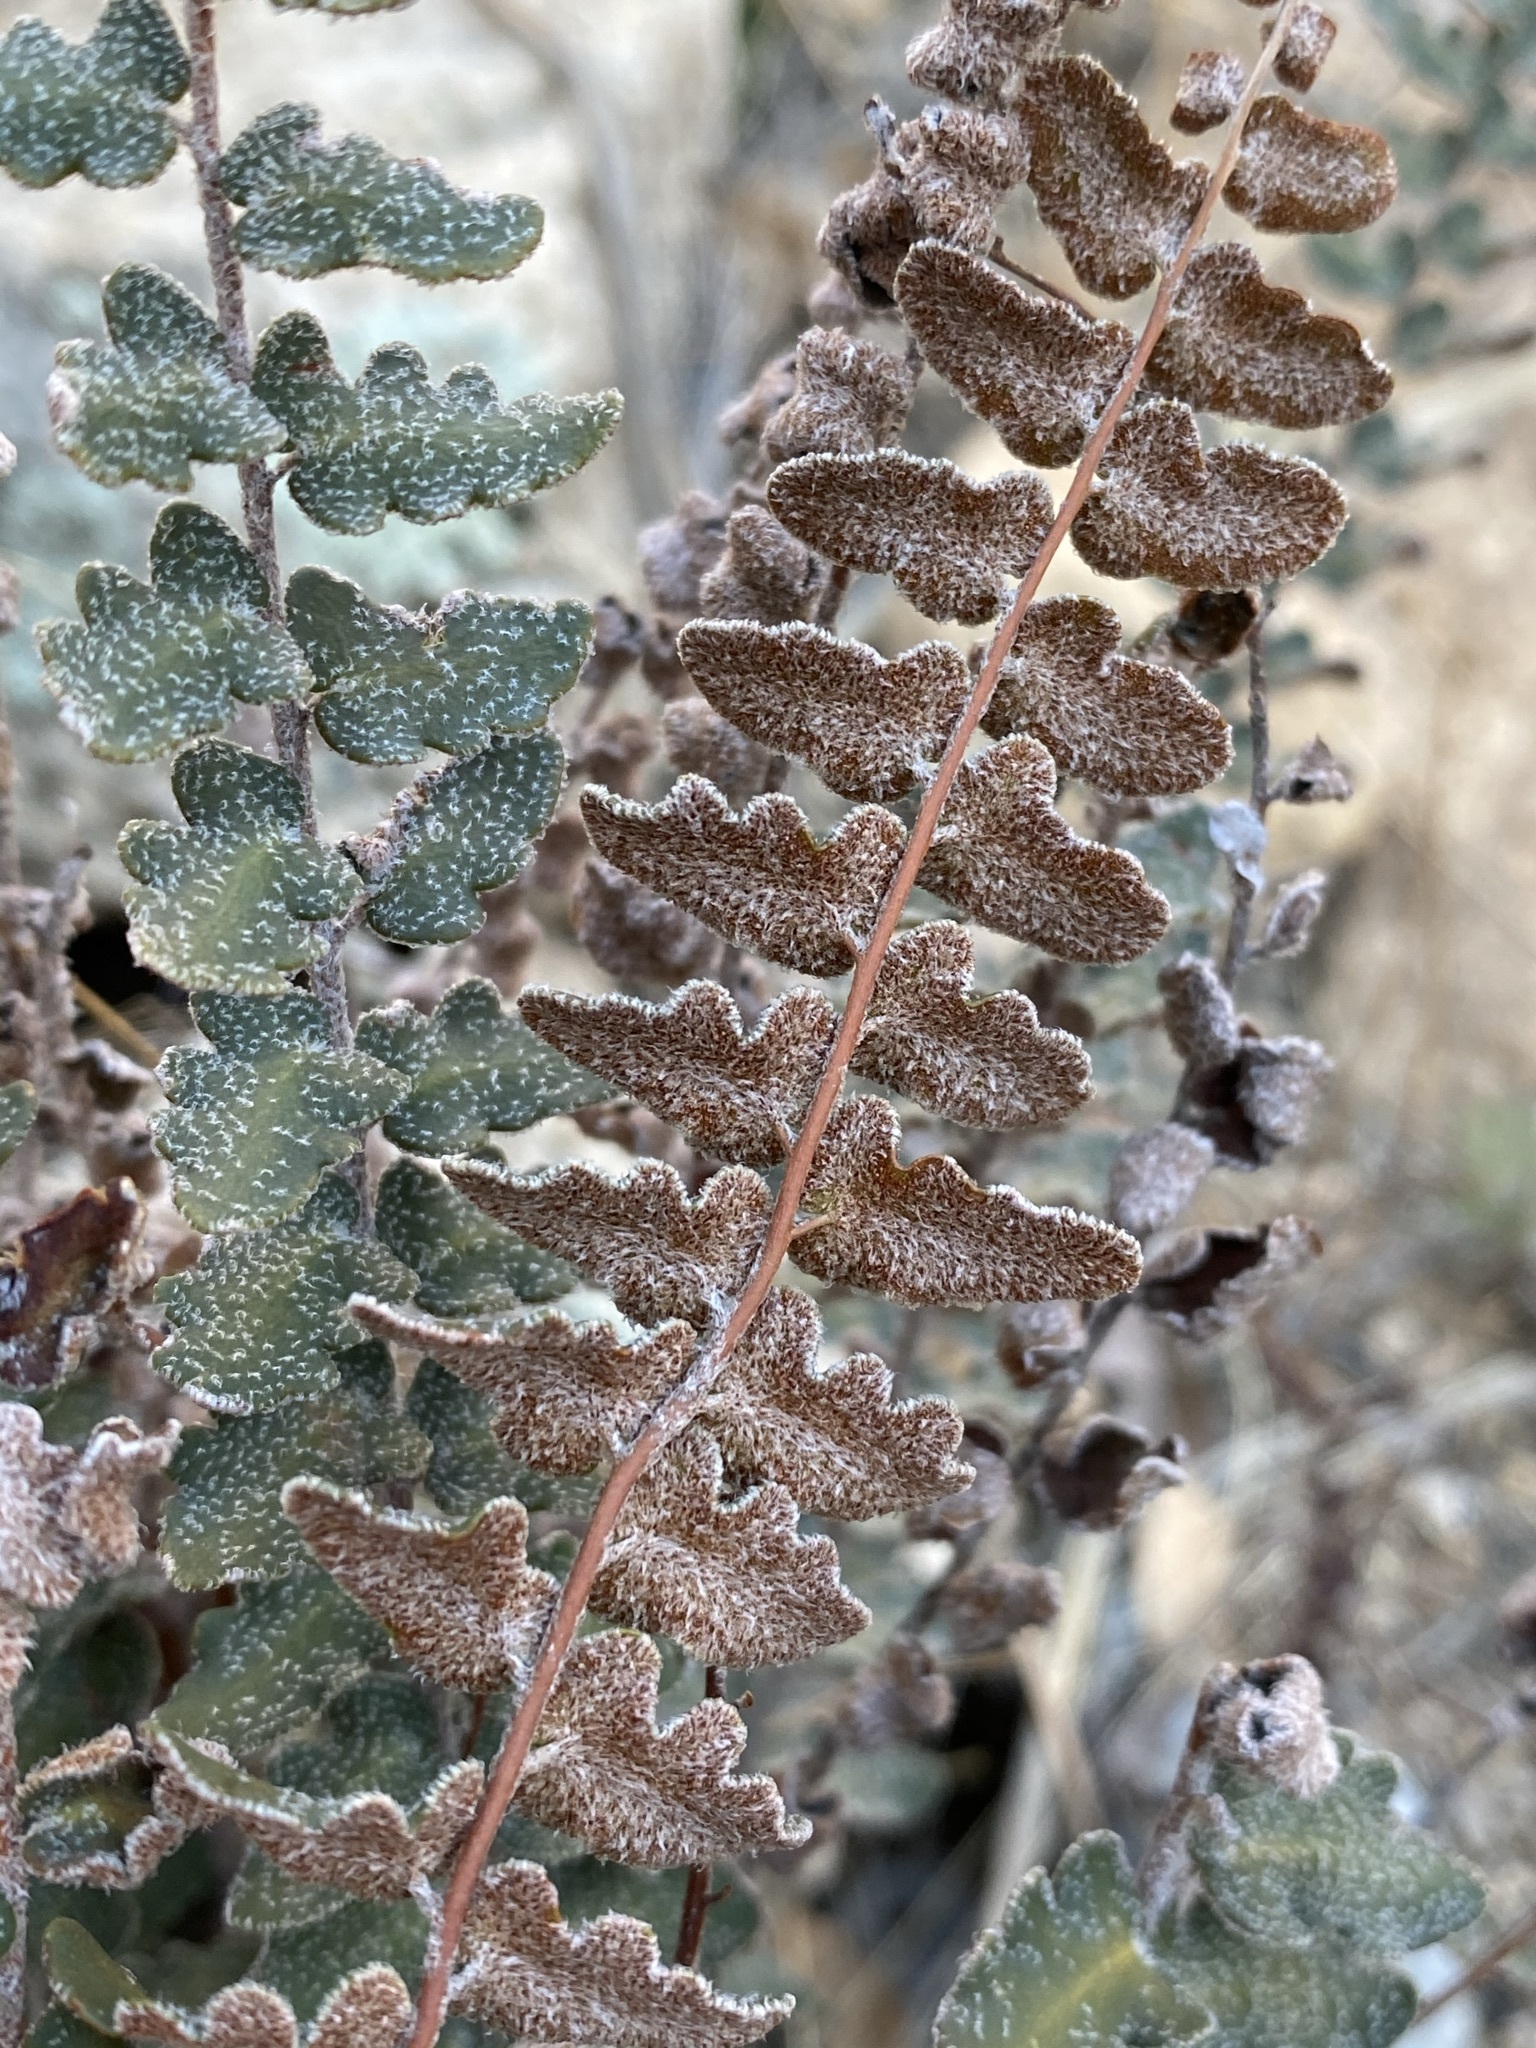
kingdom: Plantae
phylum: Tracheophyta
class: Polypodiopsida
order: Polypodiales
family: Pteridaceae
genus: Astrolepis
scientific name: Astrolepis sinuata
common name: Wavy scaly cloakfern
